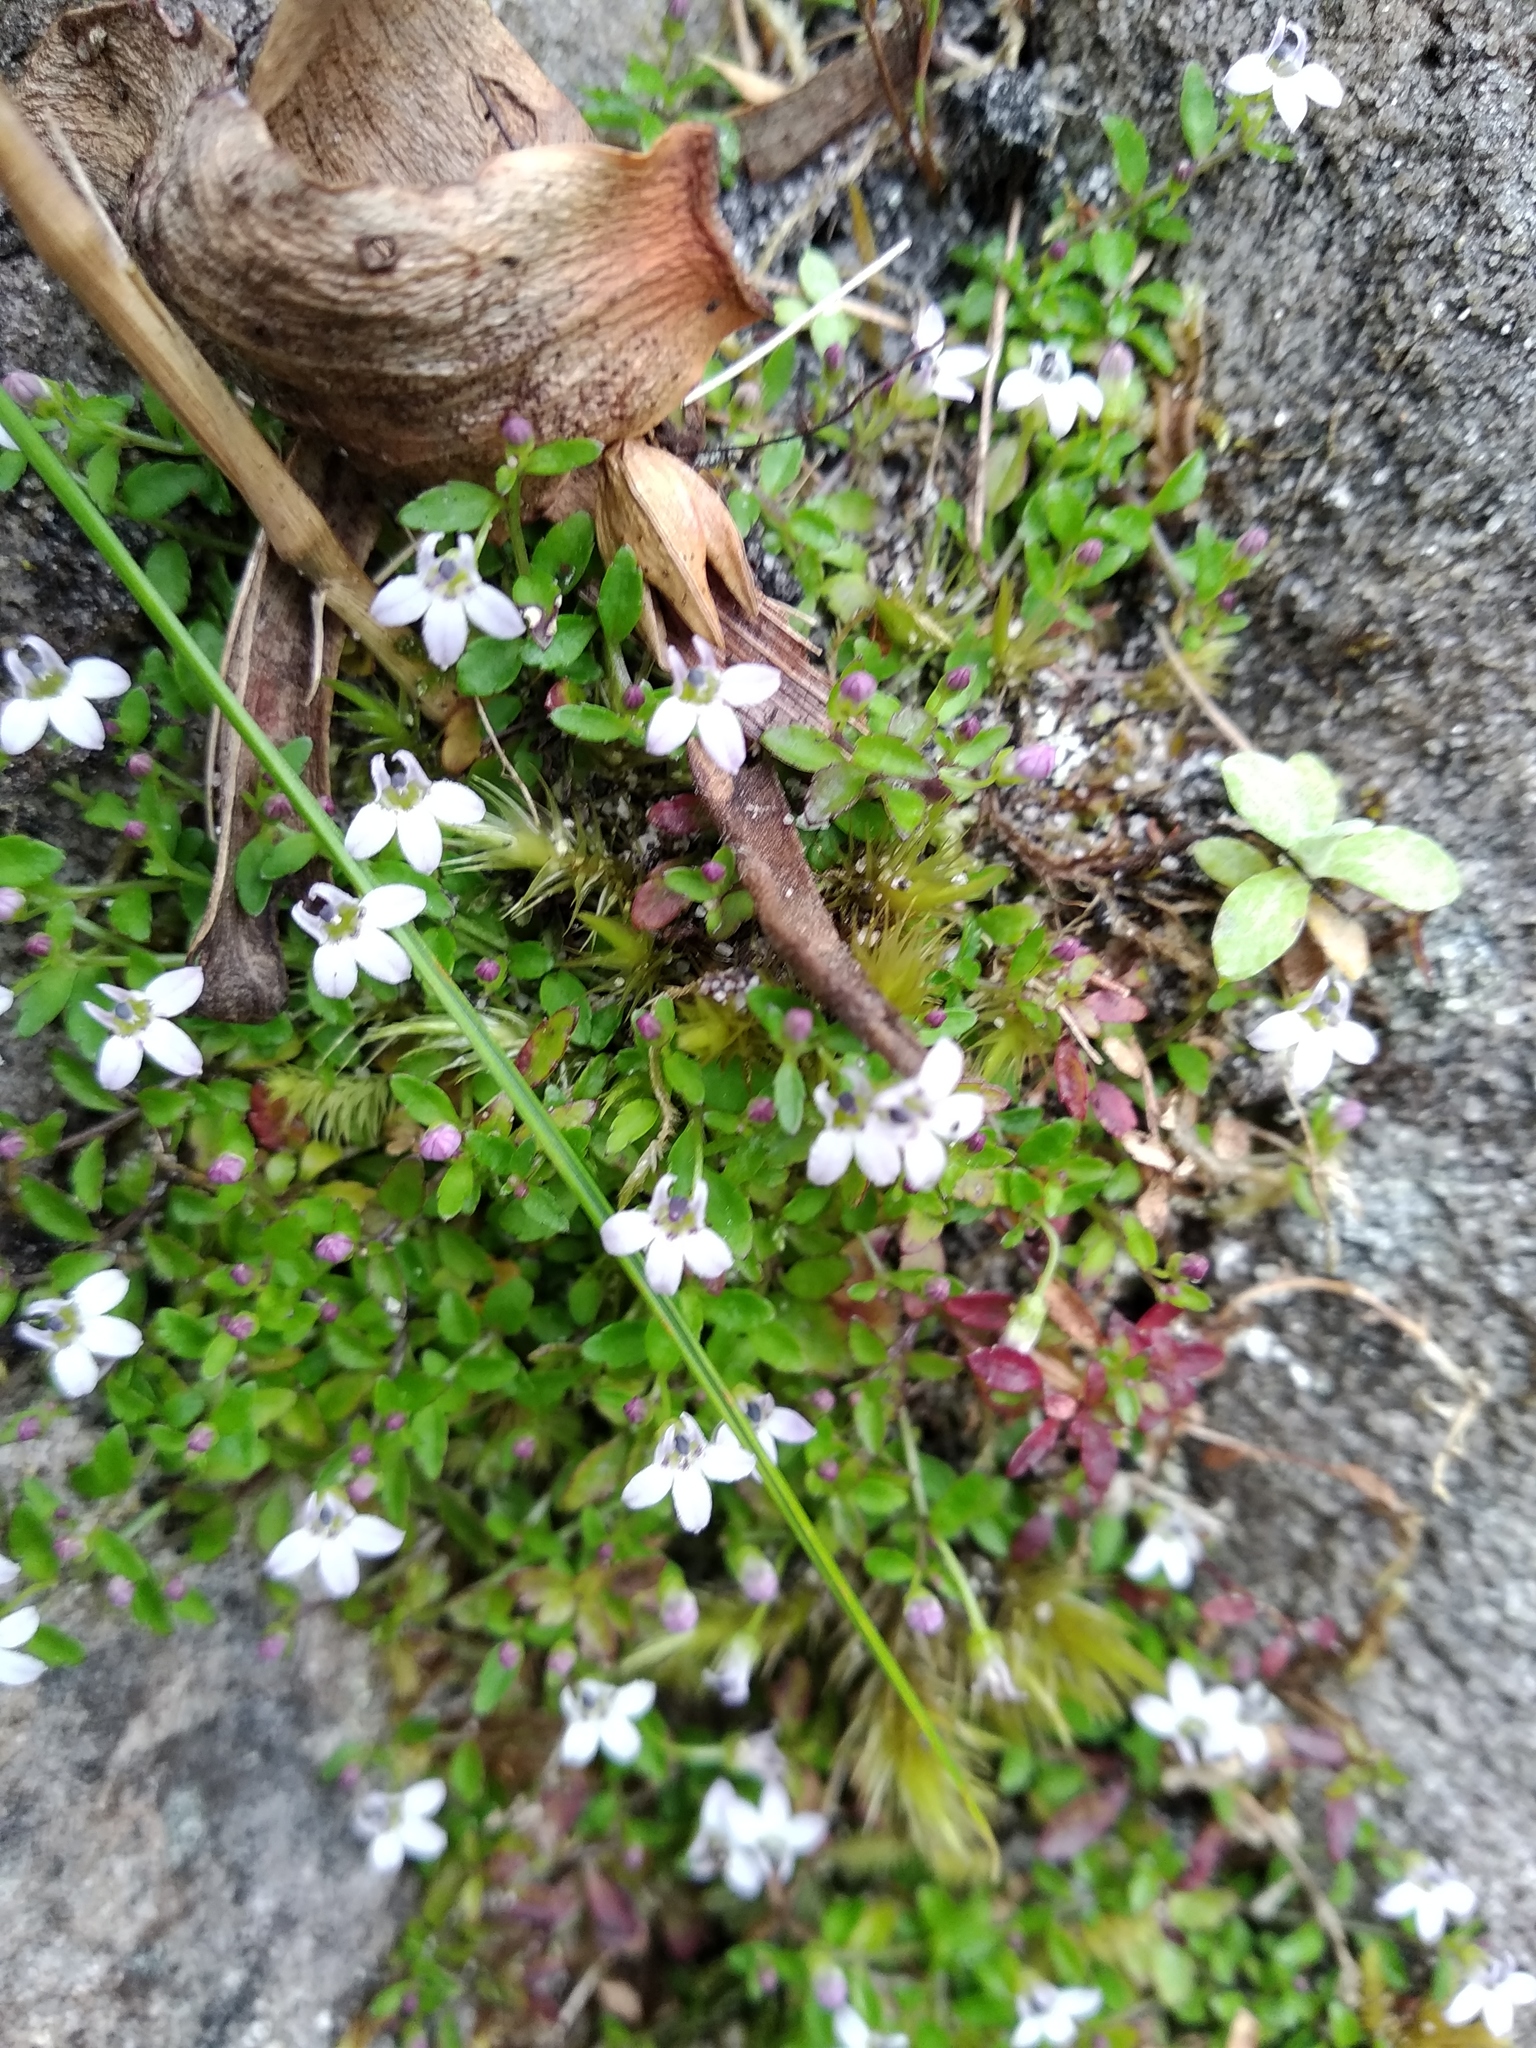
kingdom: Plantae
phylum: Tracheophyta
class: Magnoliopsida
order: Asterales
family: Campanulaceae
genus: Unigenes
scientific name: Unigenes humifusa
